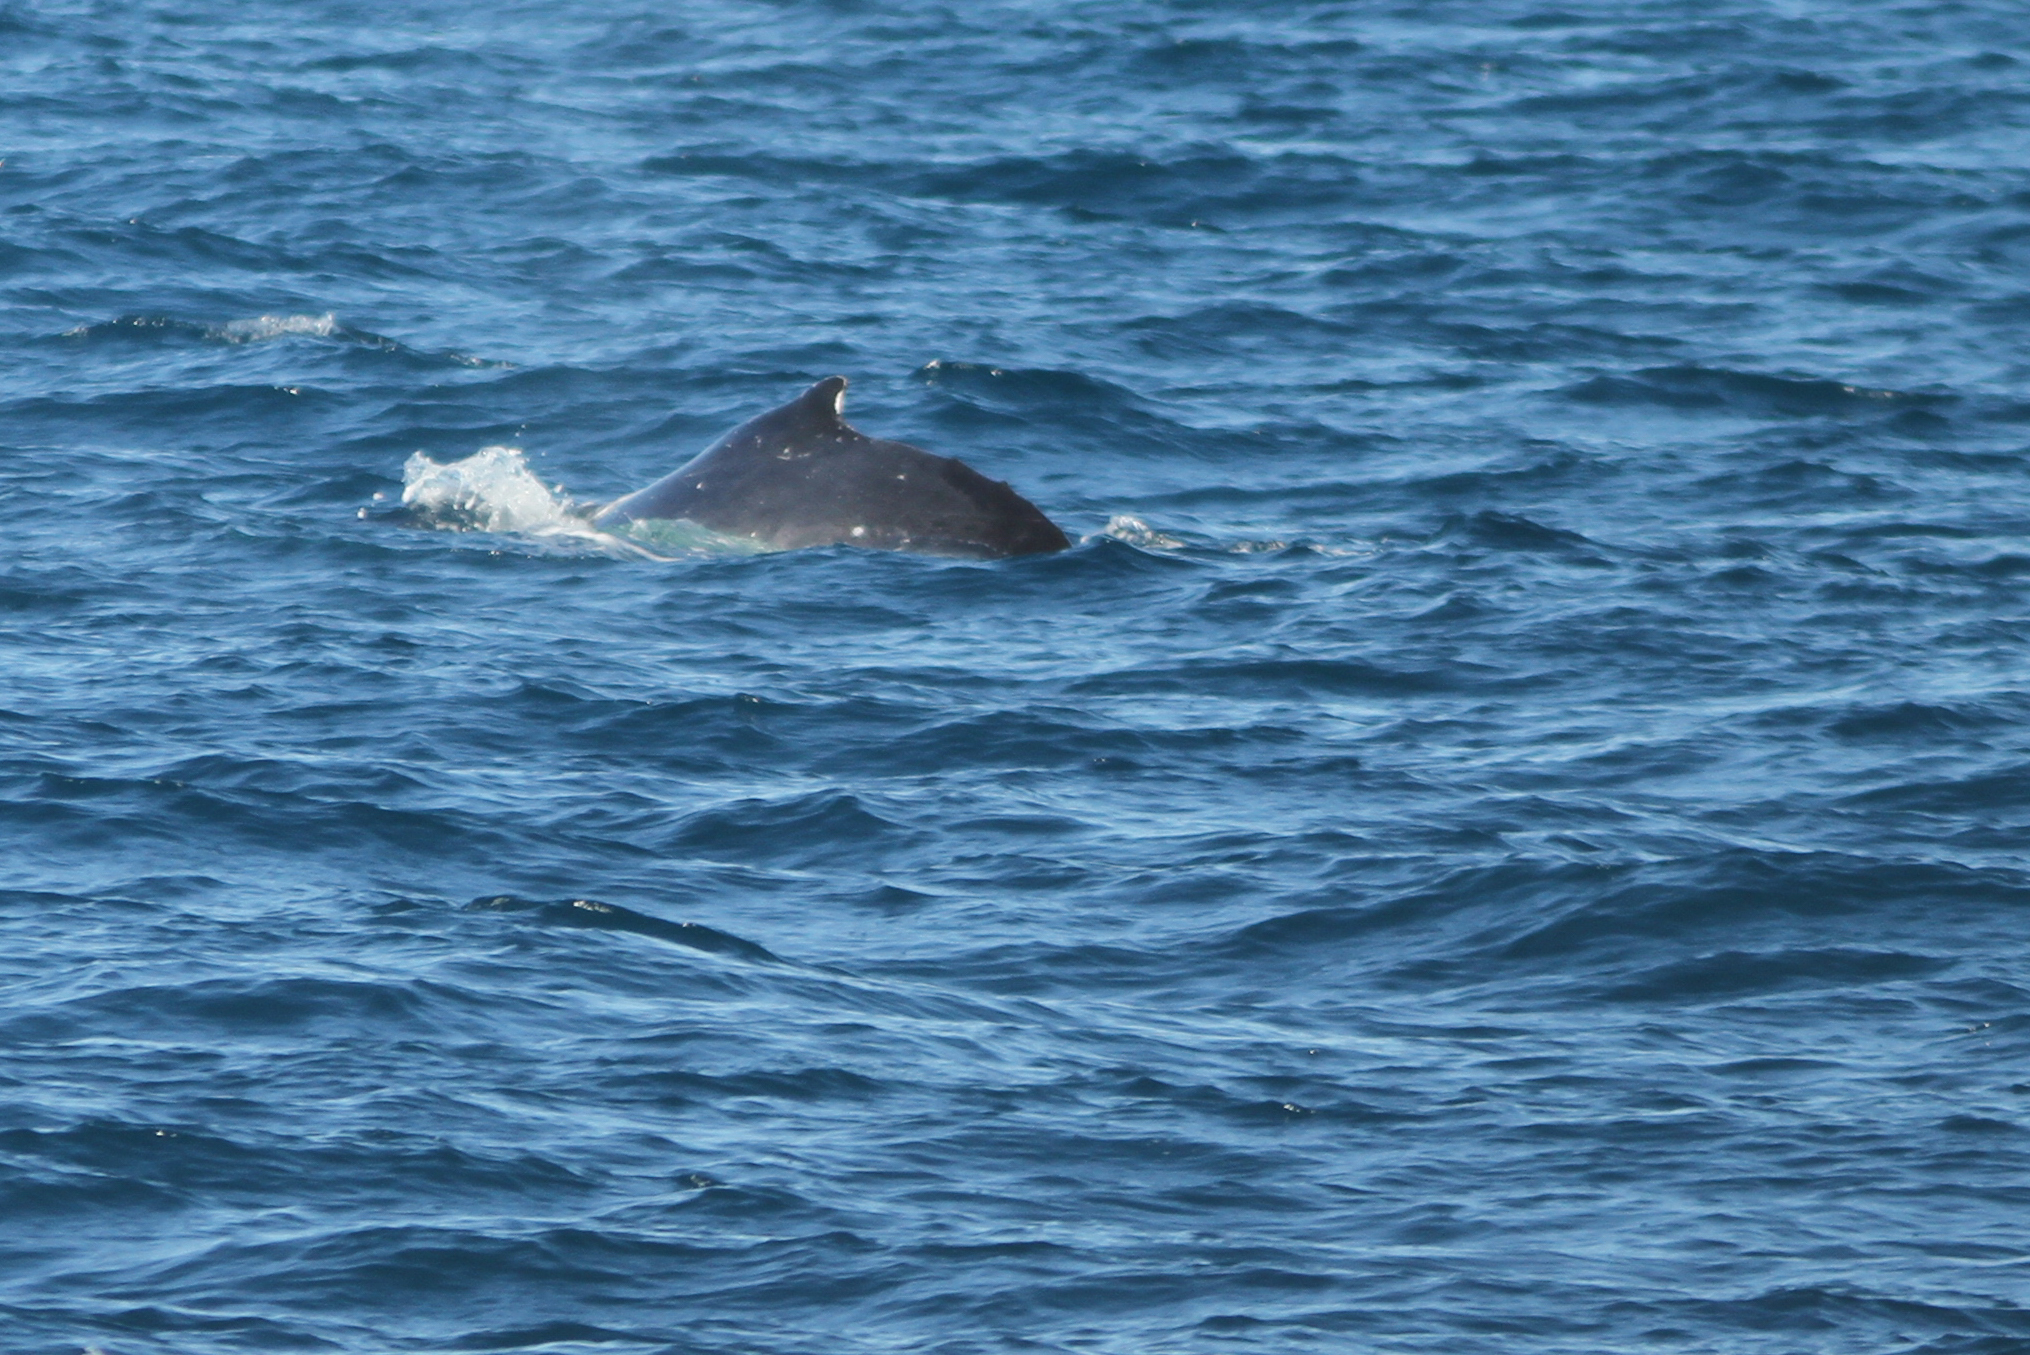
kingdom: Animalia
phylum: Chordata
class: Mammalia
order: Cetacea
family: Balaenopteridae
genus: Megaptera
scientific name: Megaptera novaeangliae
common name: Humpback whale
